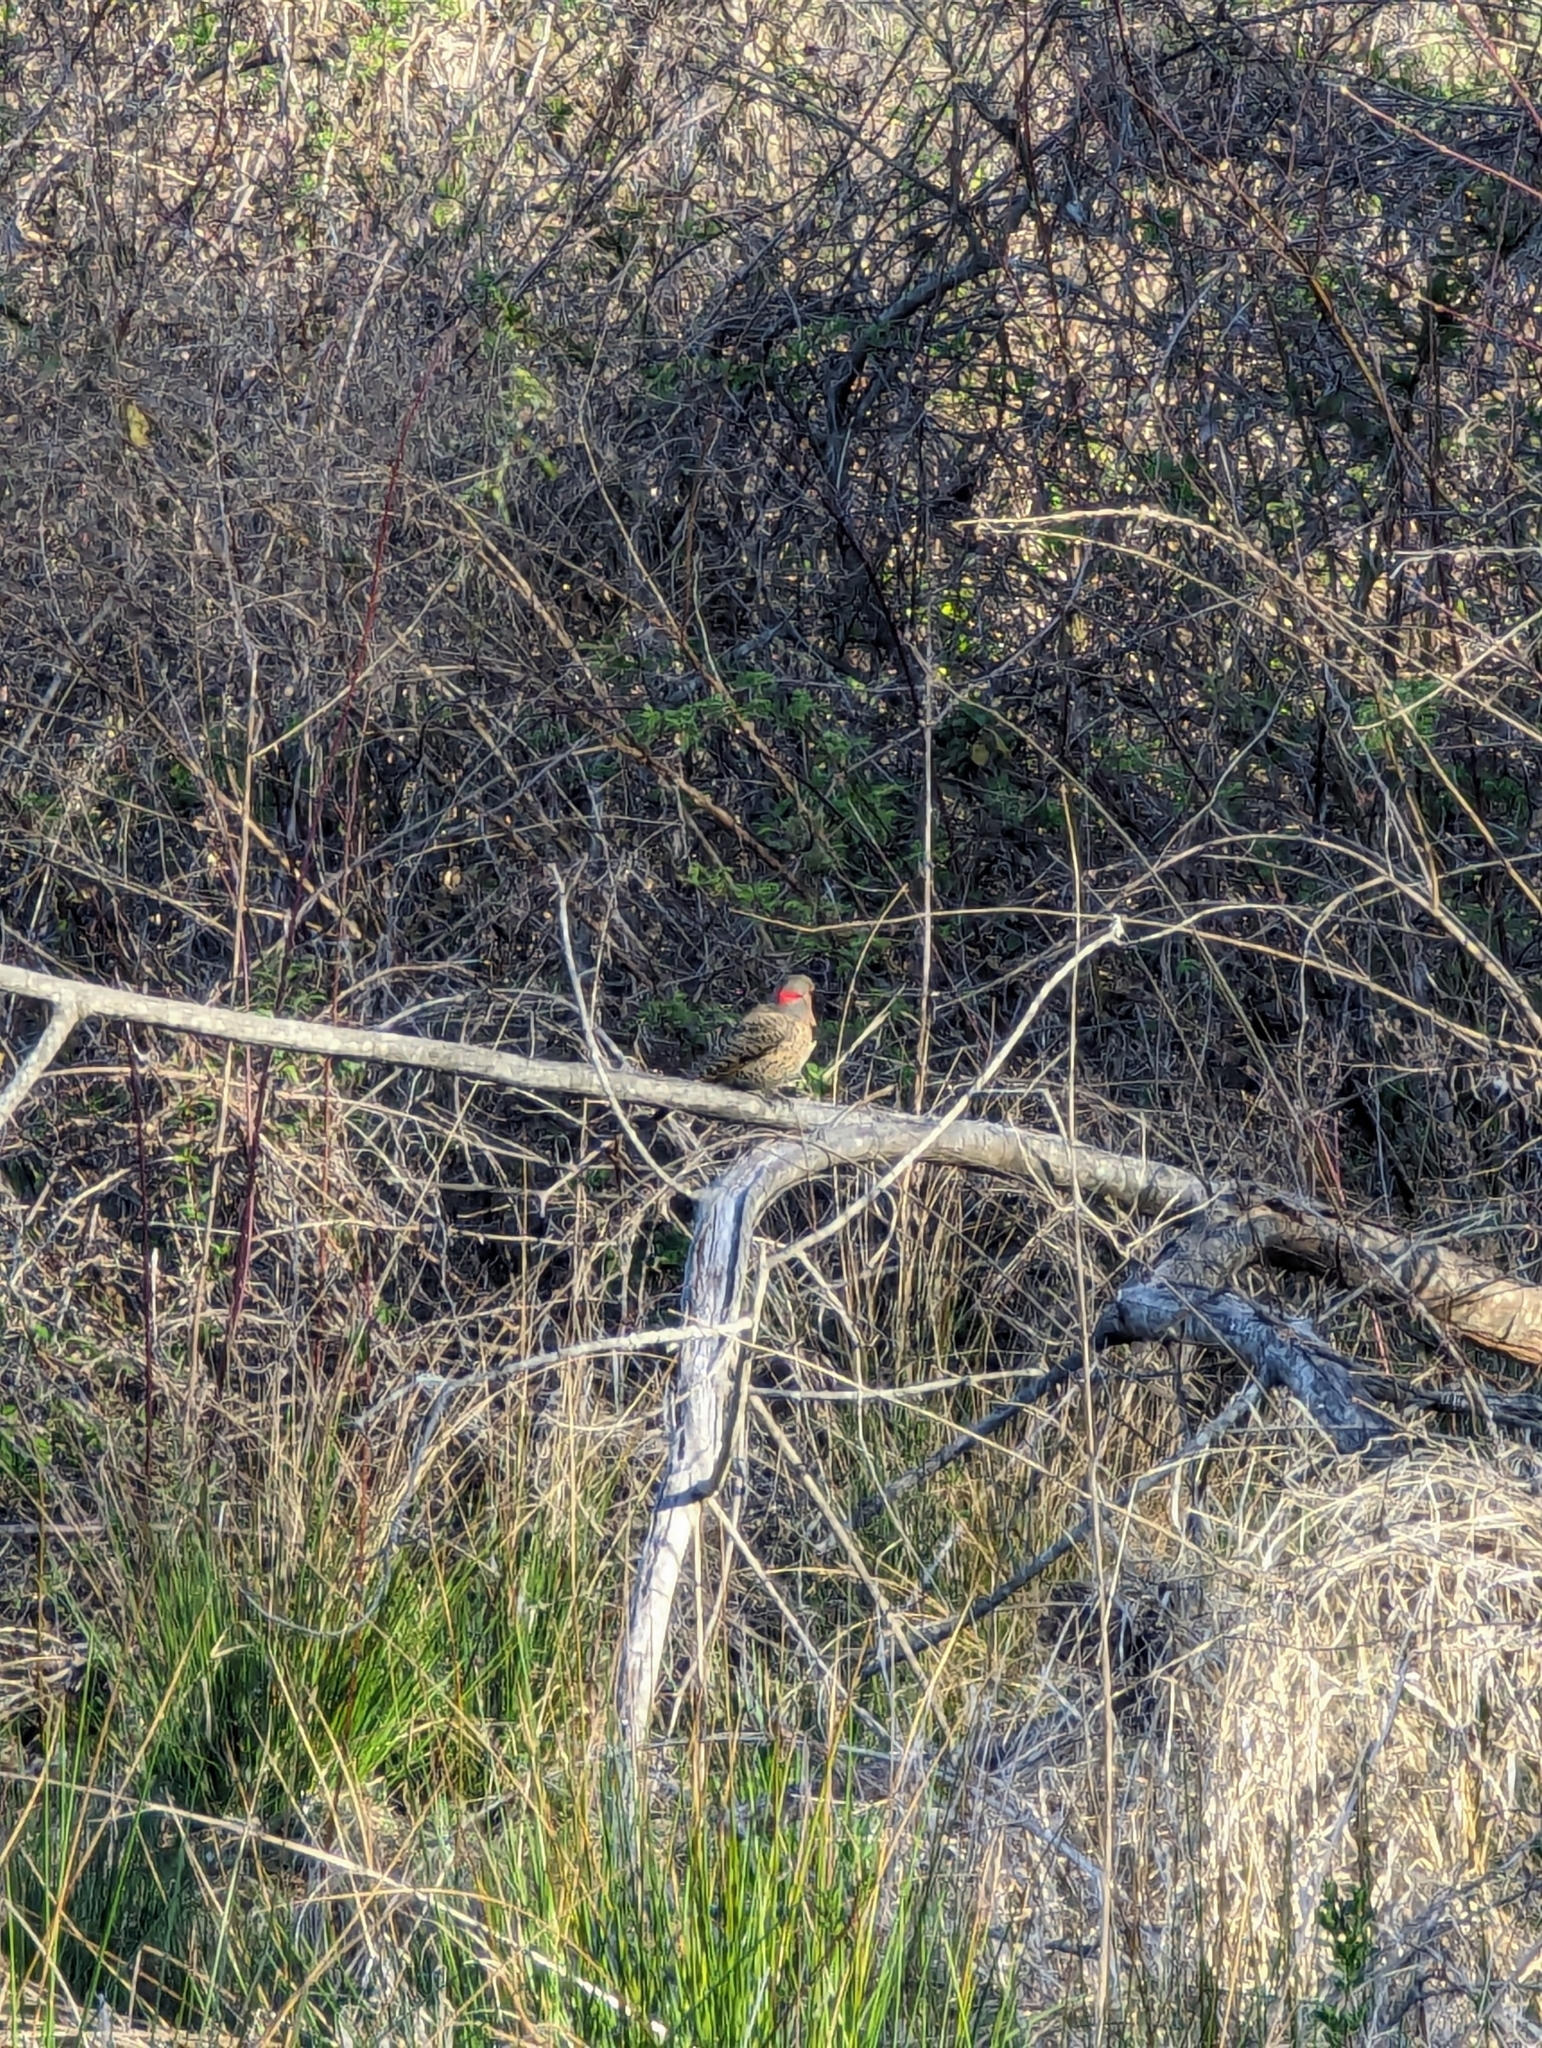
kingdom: Animalia
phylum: Chordata
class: Aves
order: Piciformes
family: Picidae
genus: Colaptes
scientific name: Colaptes auratus
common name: Northern flicker
